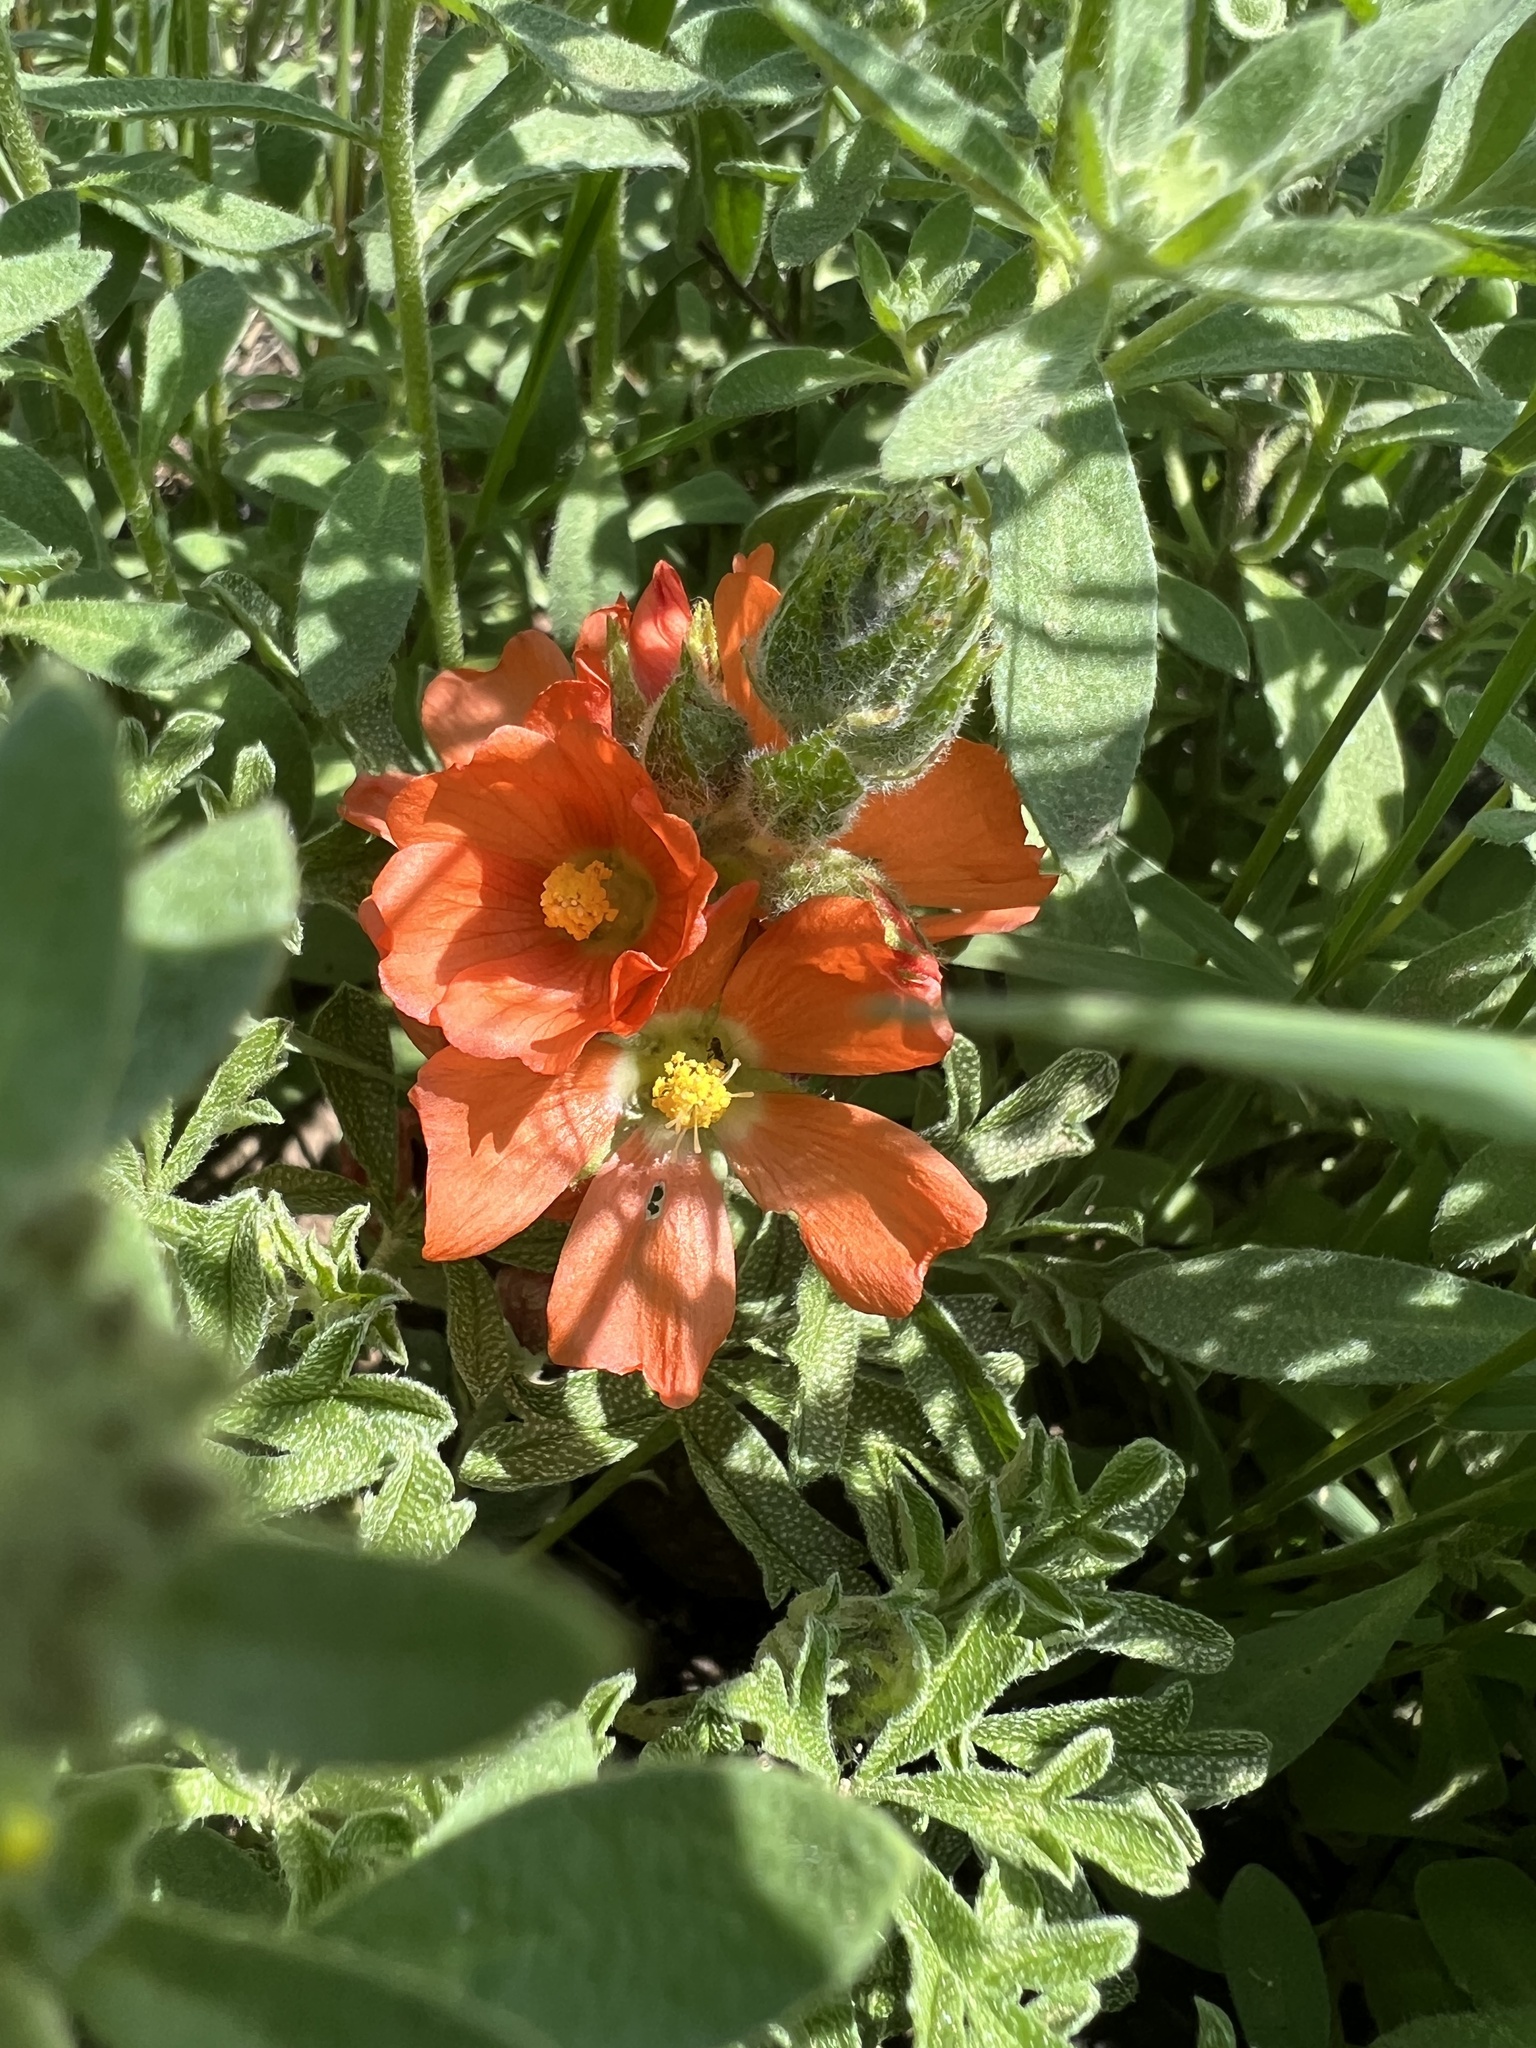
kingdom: Plantae
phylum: Tracheophyta
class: Magnoliopsida
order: Malvales
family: Malvaceae
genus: Sphaeralcea
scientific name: Sphaeralcea coccinea
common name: Moss-rose
